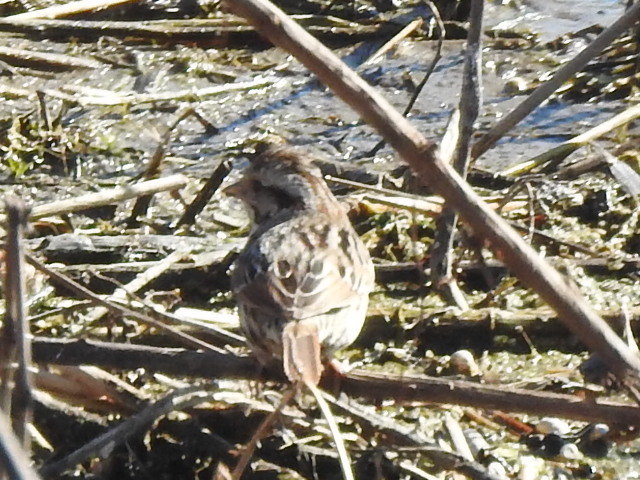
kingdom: Animalia
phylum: Chordata
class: Aves
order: Passeriformes
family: Passerellidae
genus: Melospiza
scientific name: Melospiza melodia
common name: Song sparrow
